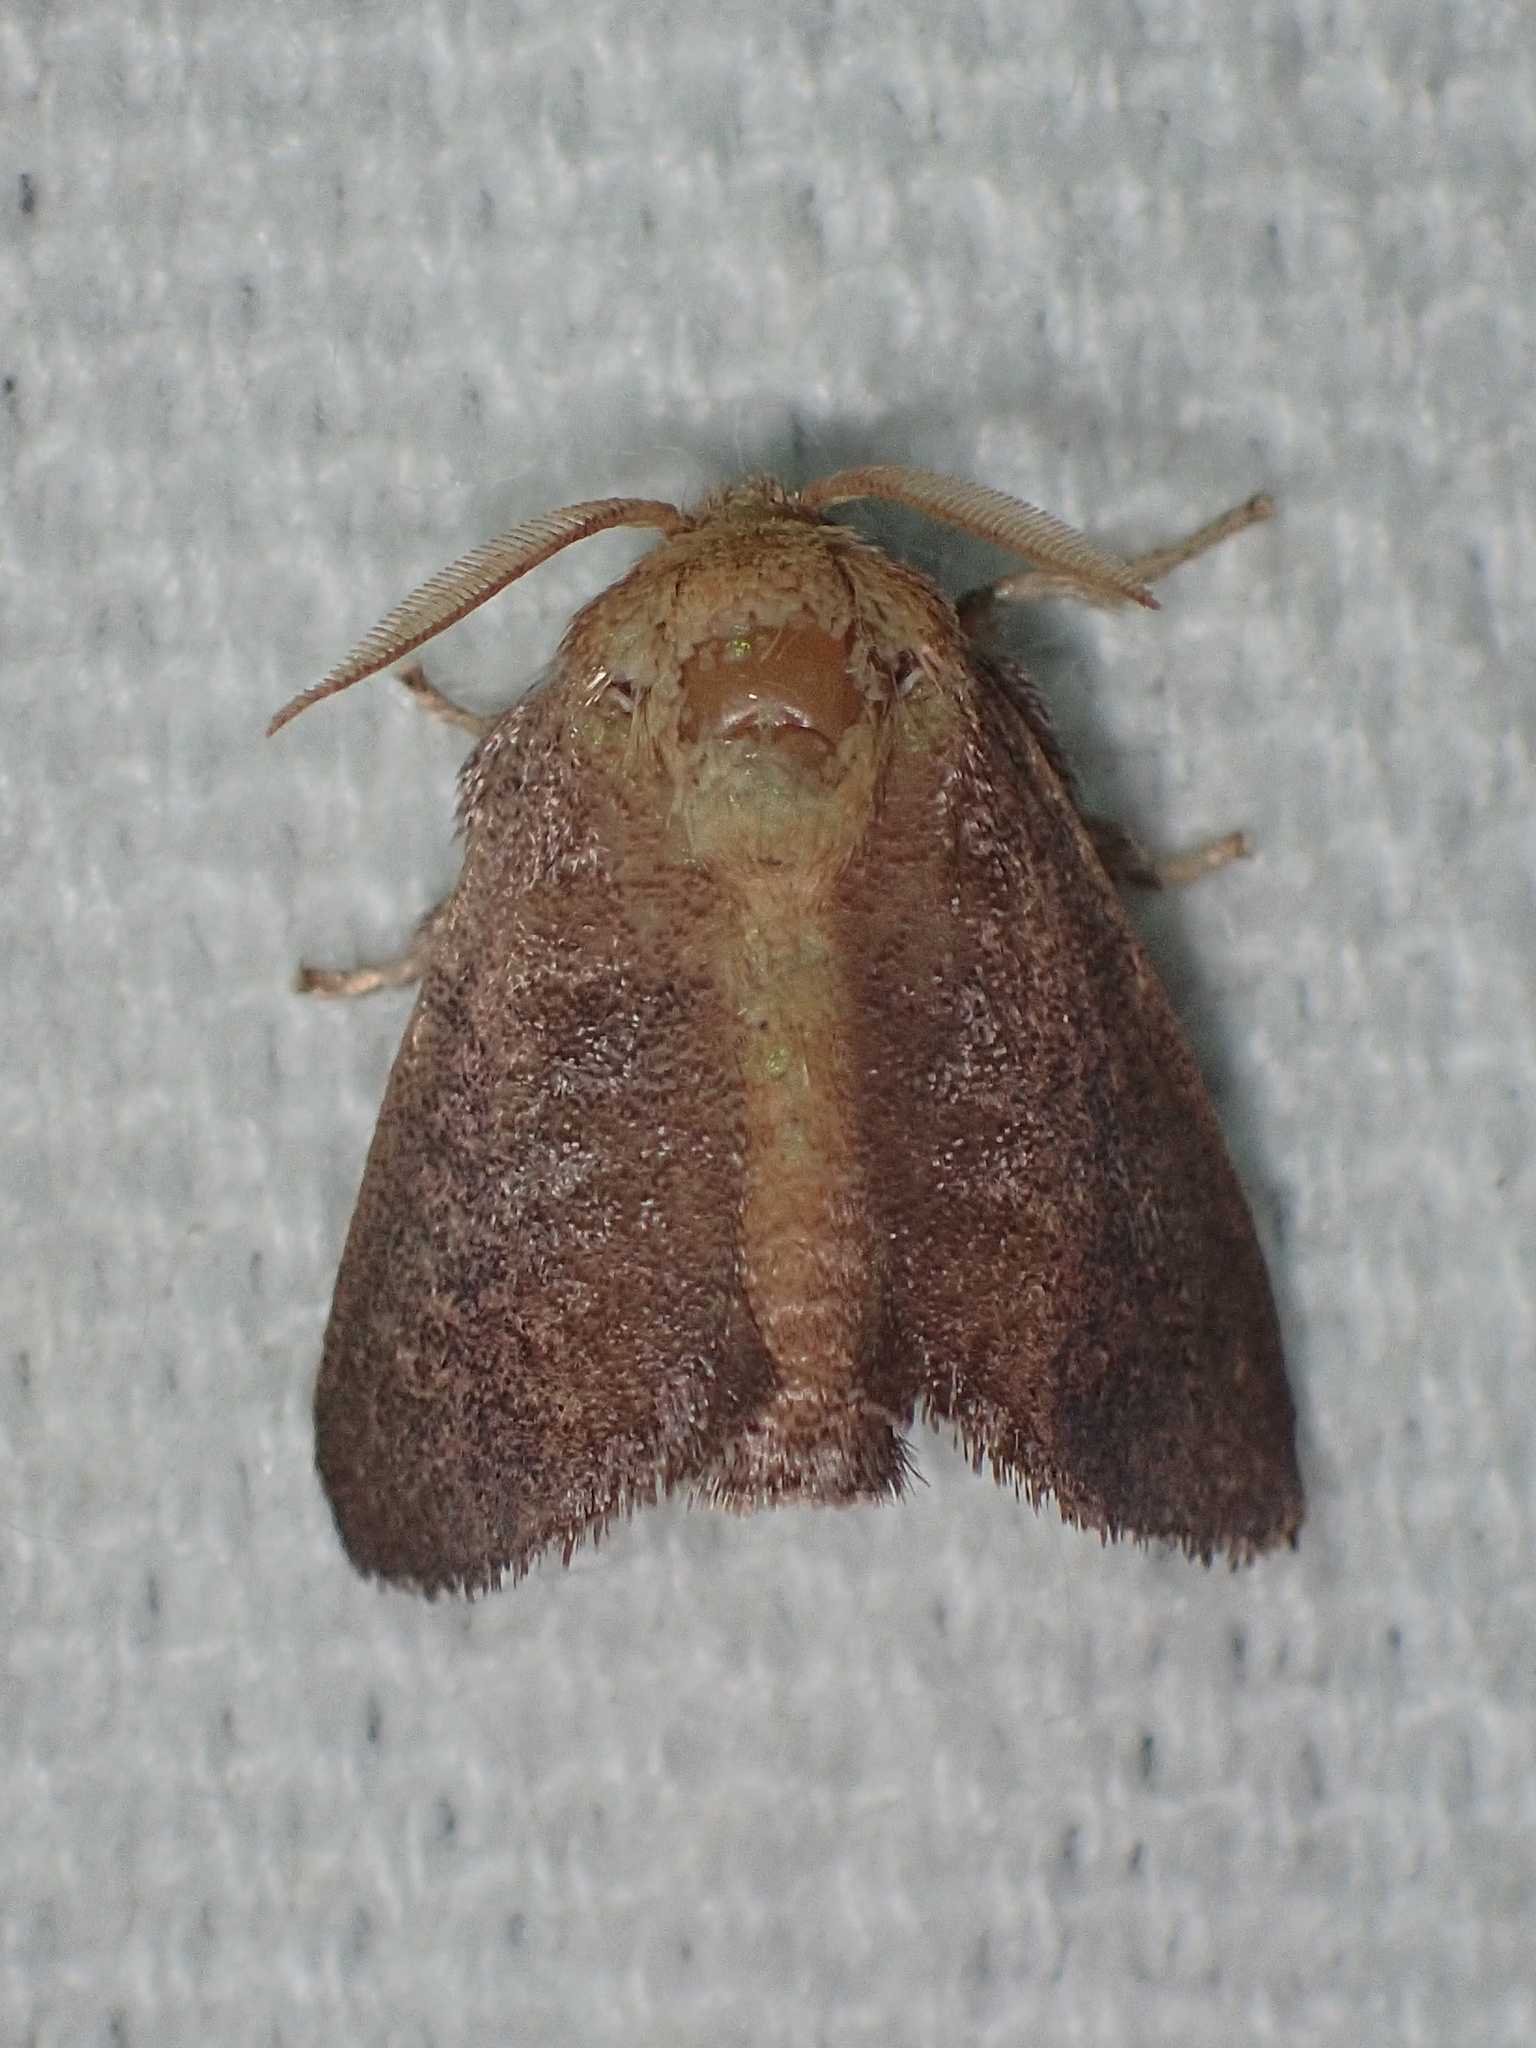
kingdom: Animalia
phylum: Arthropoda
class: Insecta
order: Lepidoptera
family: Limacodidae
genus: Isa
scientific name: Isa textula
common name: Crowned slug moth
